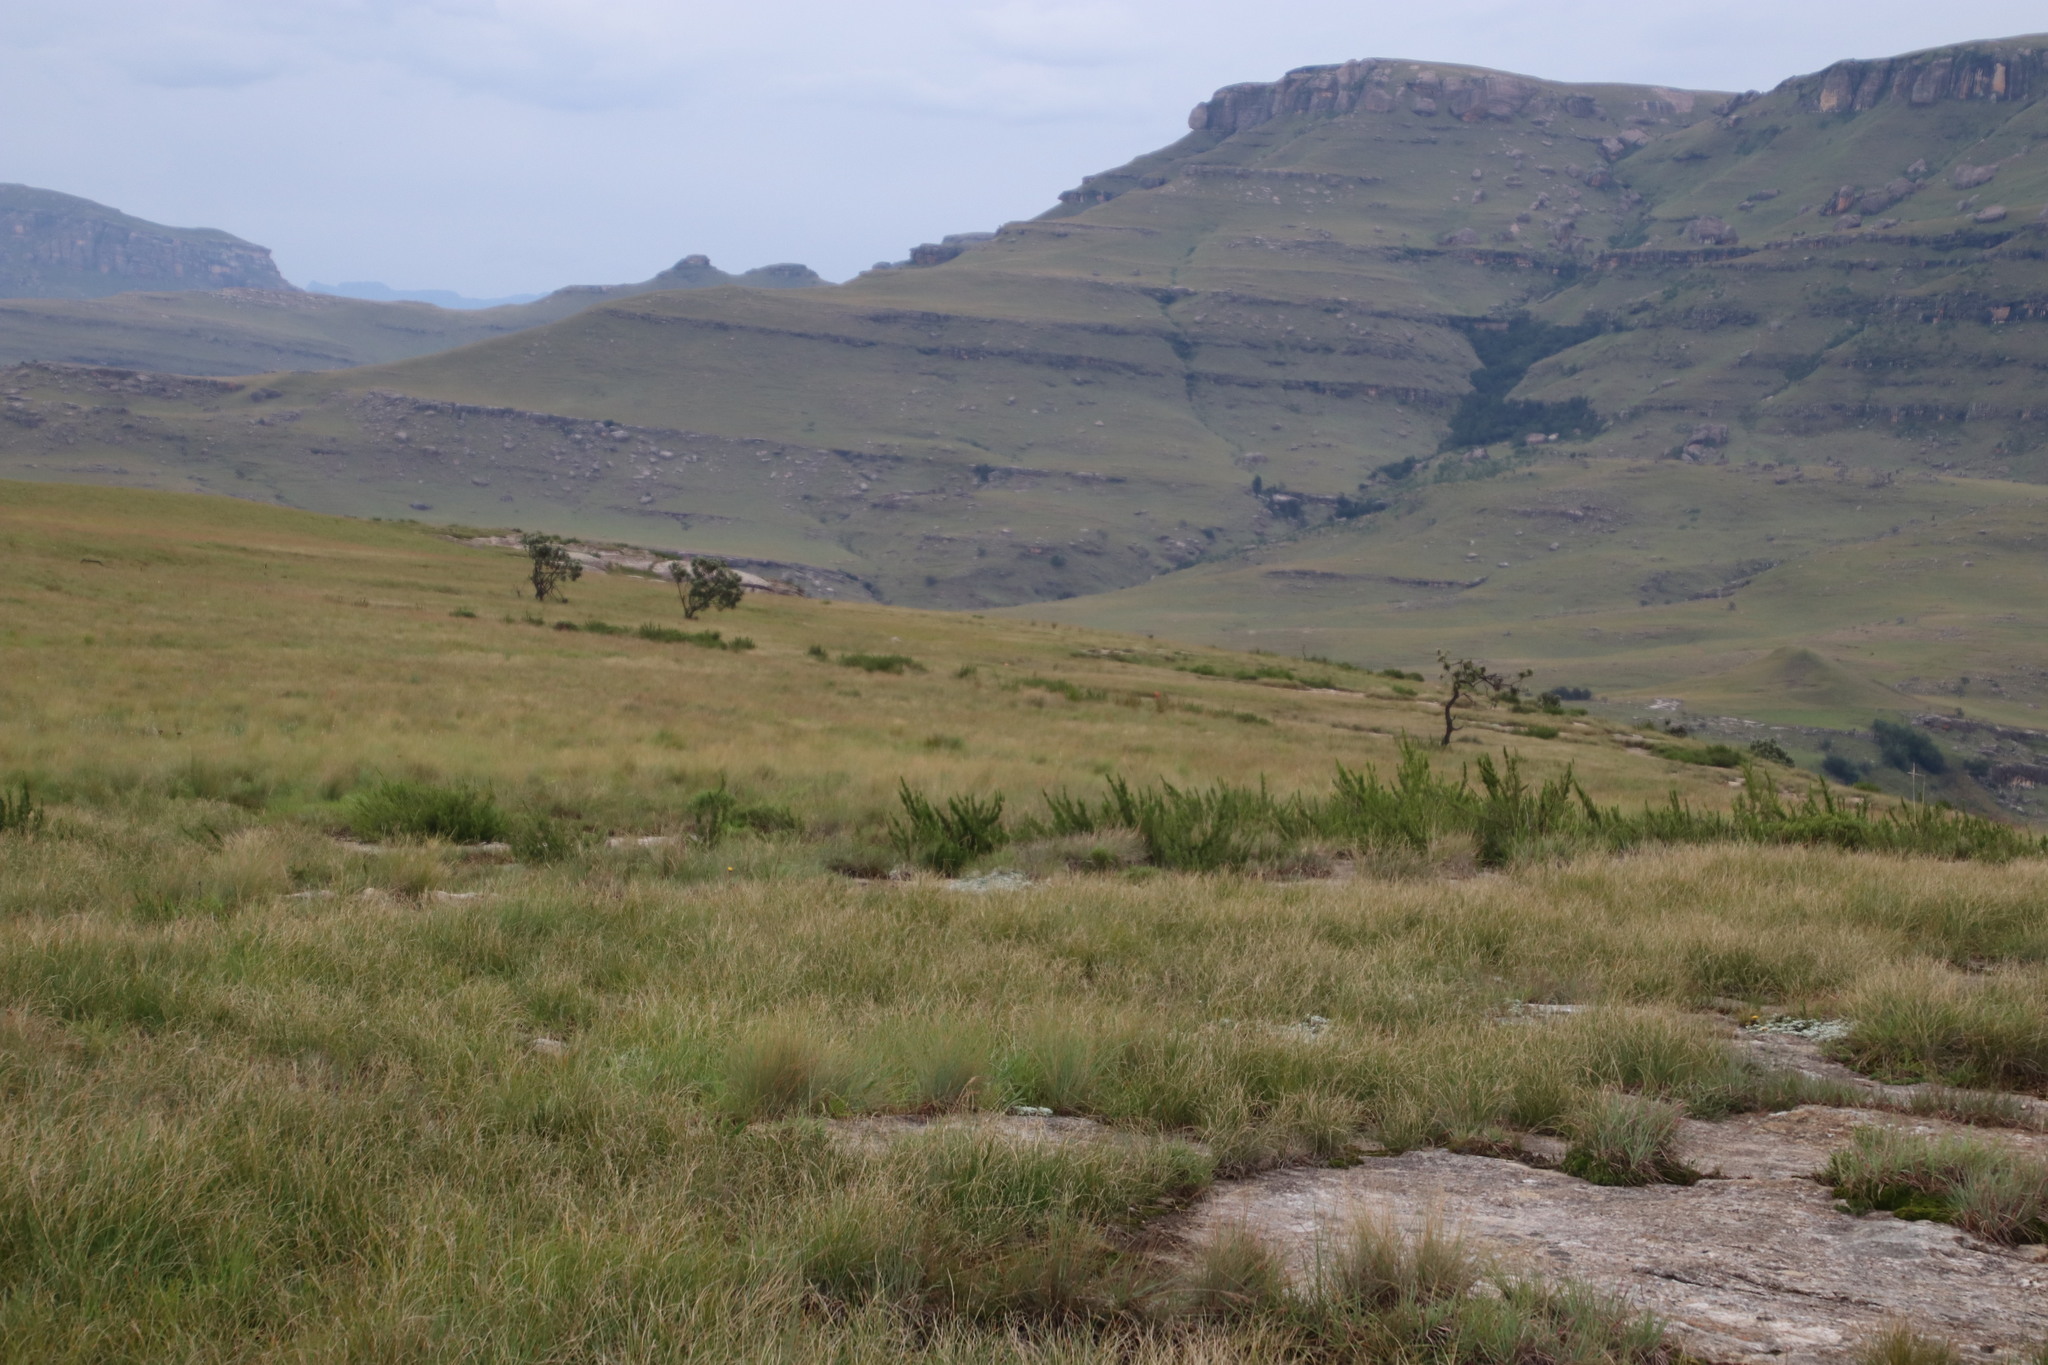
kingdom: Plantae
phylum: Tracheophyta
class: Magnoliopsida
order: Rosales
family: Rosaceae
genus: Cliffortia
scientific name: Cliffortia paucistaminea
